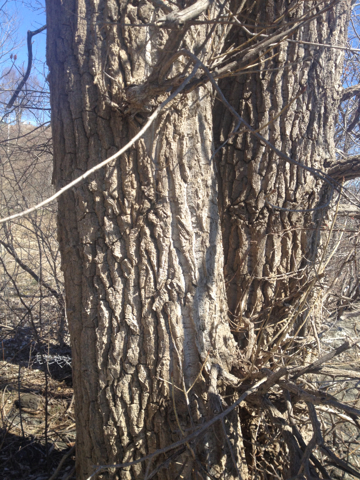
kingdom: Plantae
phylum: Tracheophyta
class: Magnoliopsida
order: Malpighiales
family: Salicaceae
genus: Populus
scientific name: Populus deltoides
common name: Eastern cottonwood
